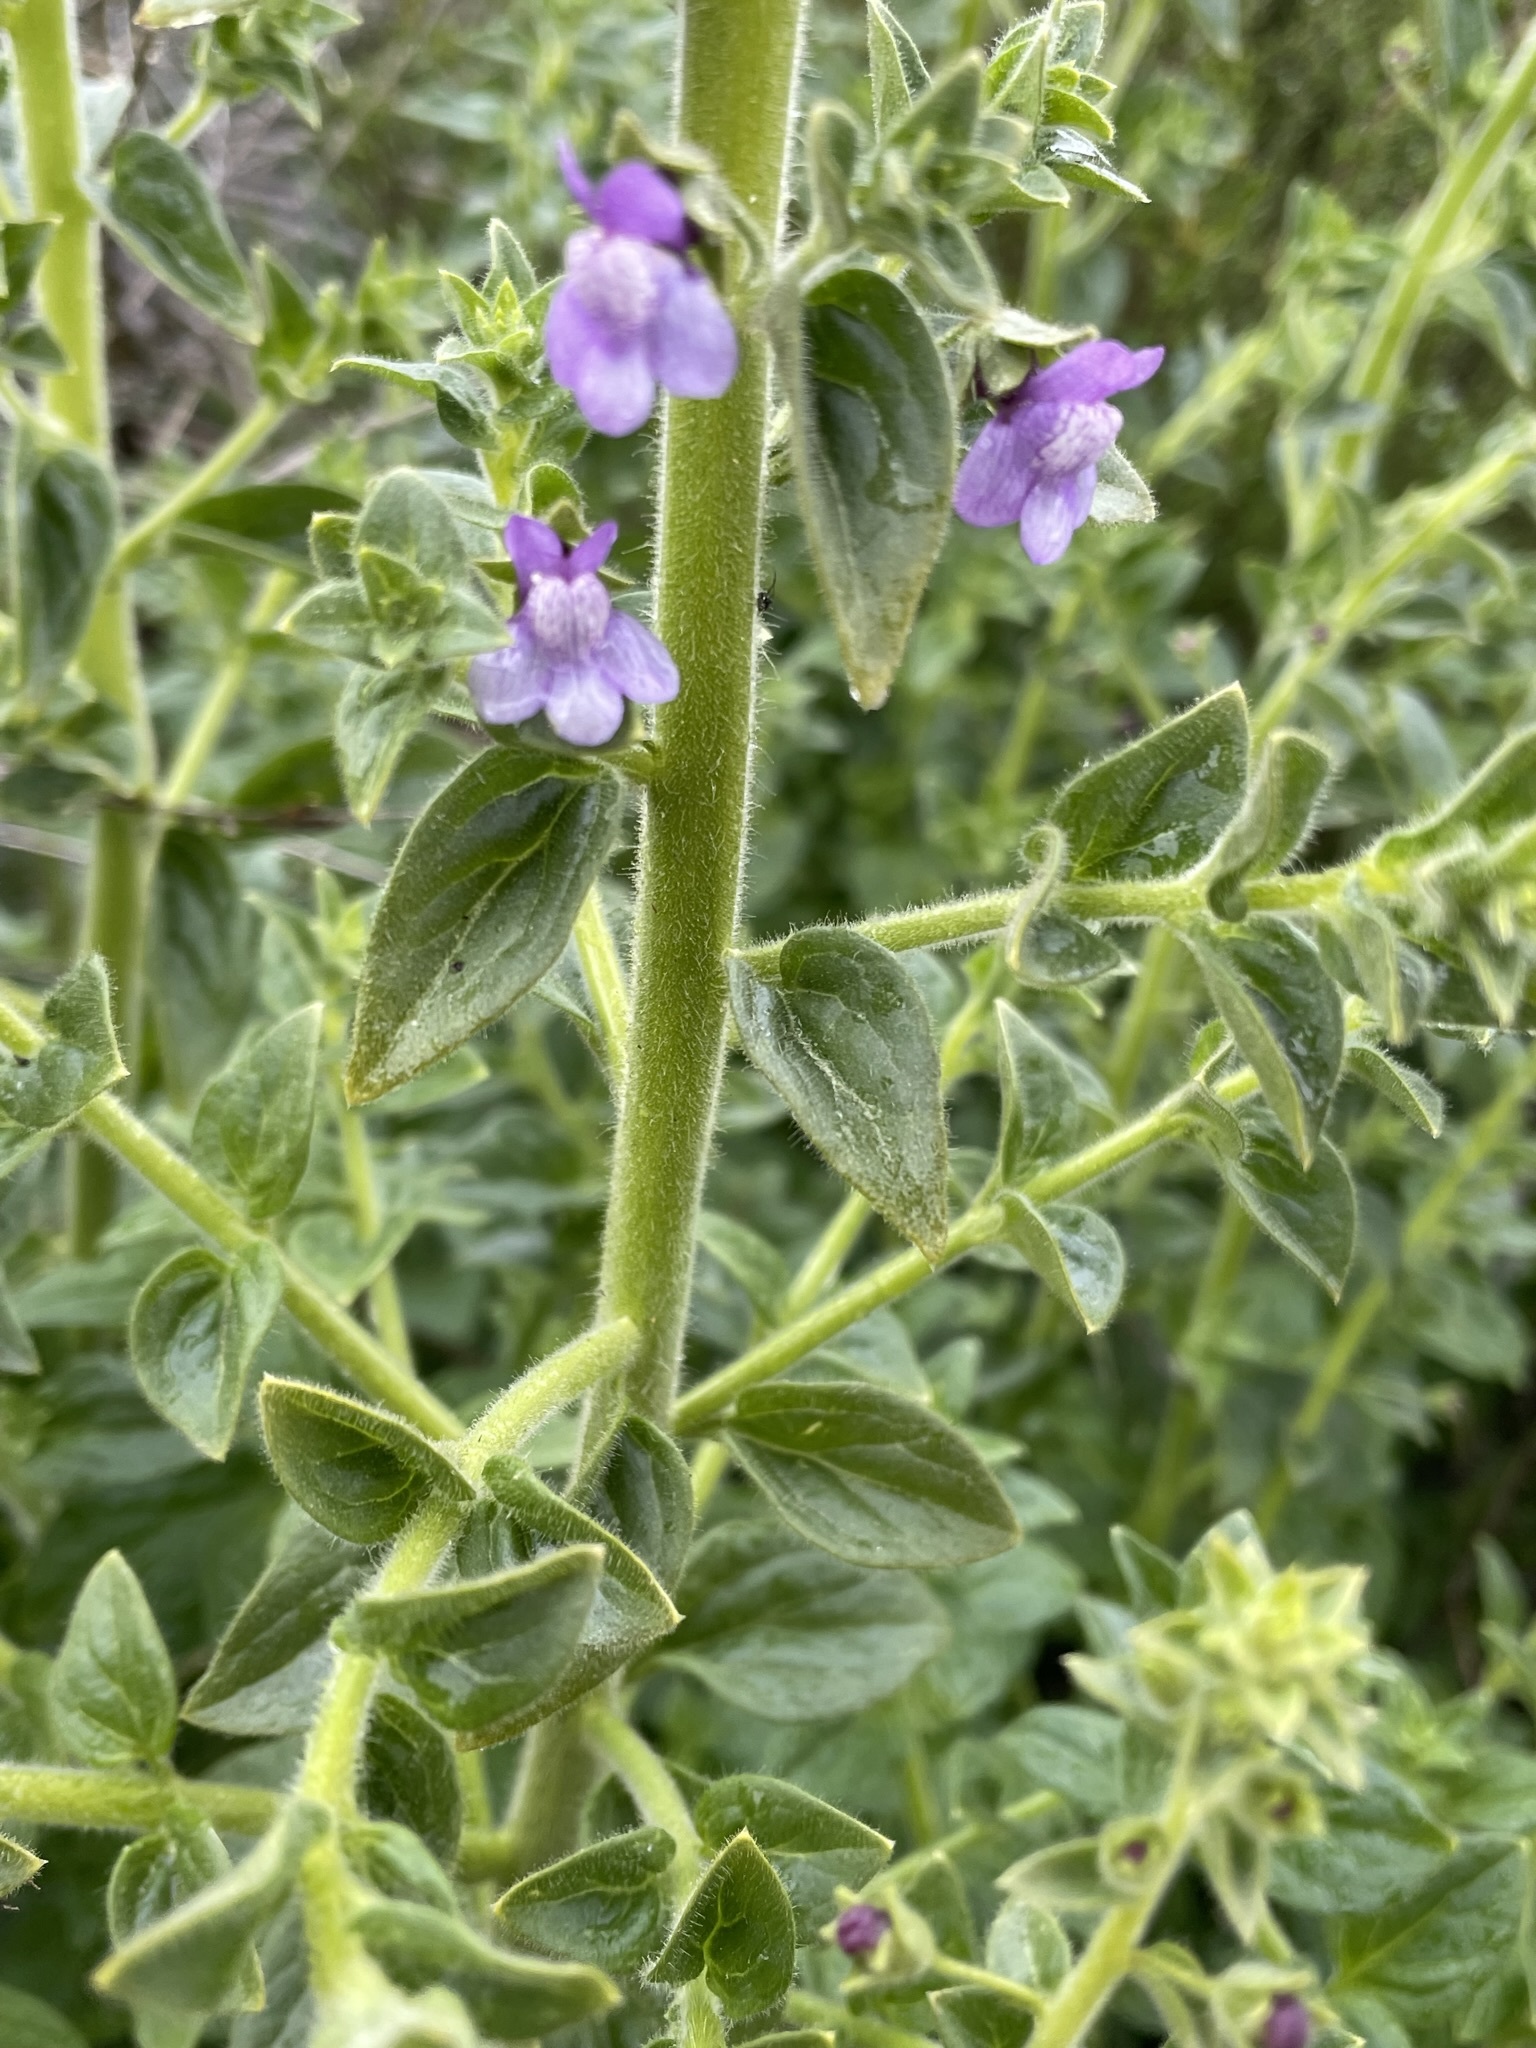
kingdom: Plantae
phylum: Tracheophyta
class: Magnoliopsida
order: Lamiales
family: Plantaginaceae
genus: Sairocarpus
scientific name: Sairocarpus nuttallianus
